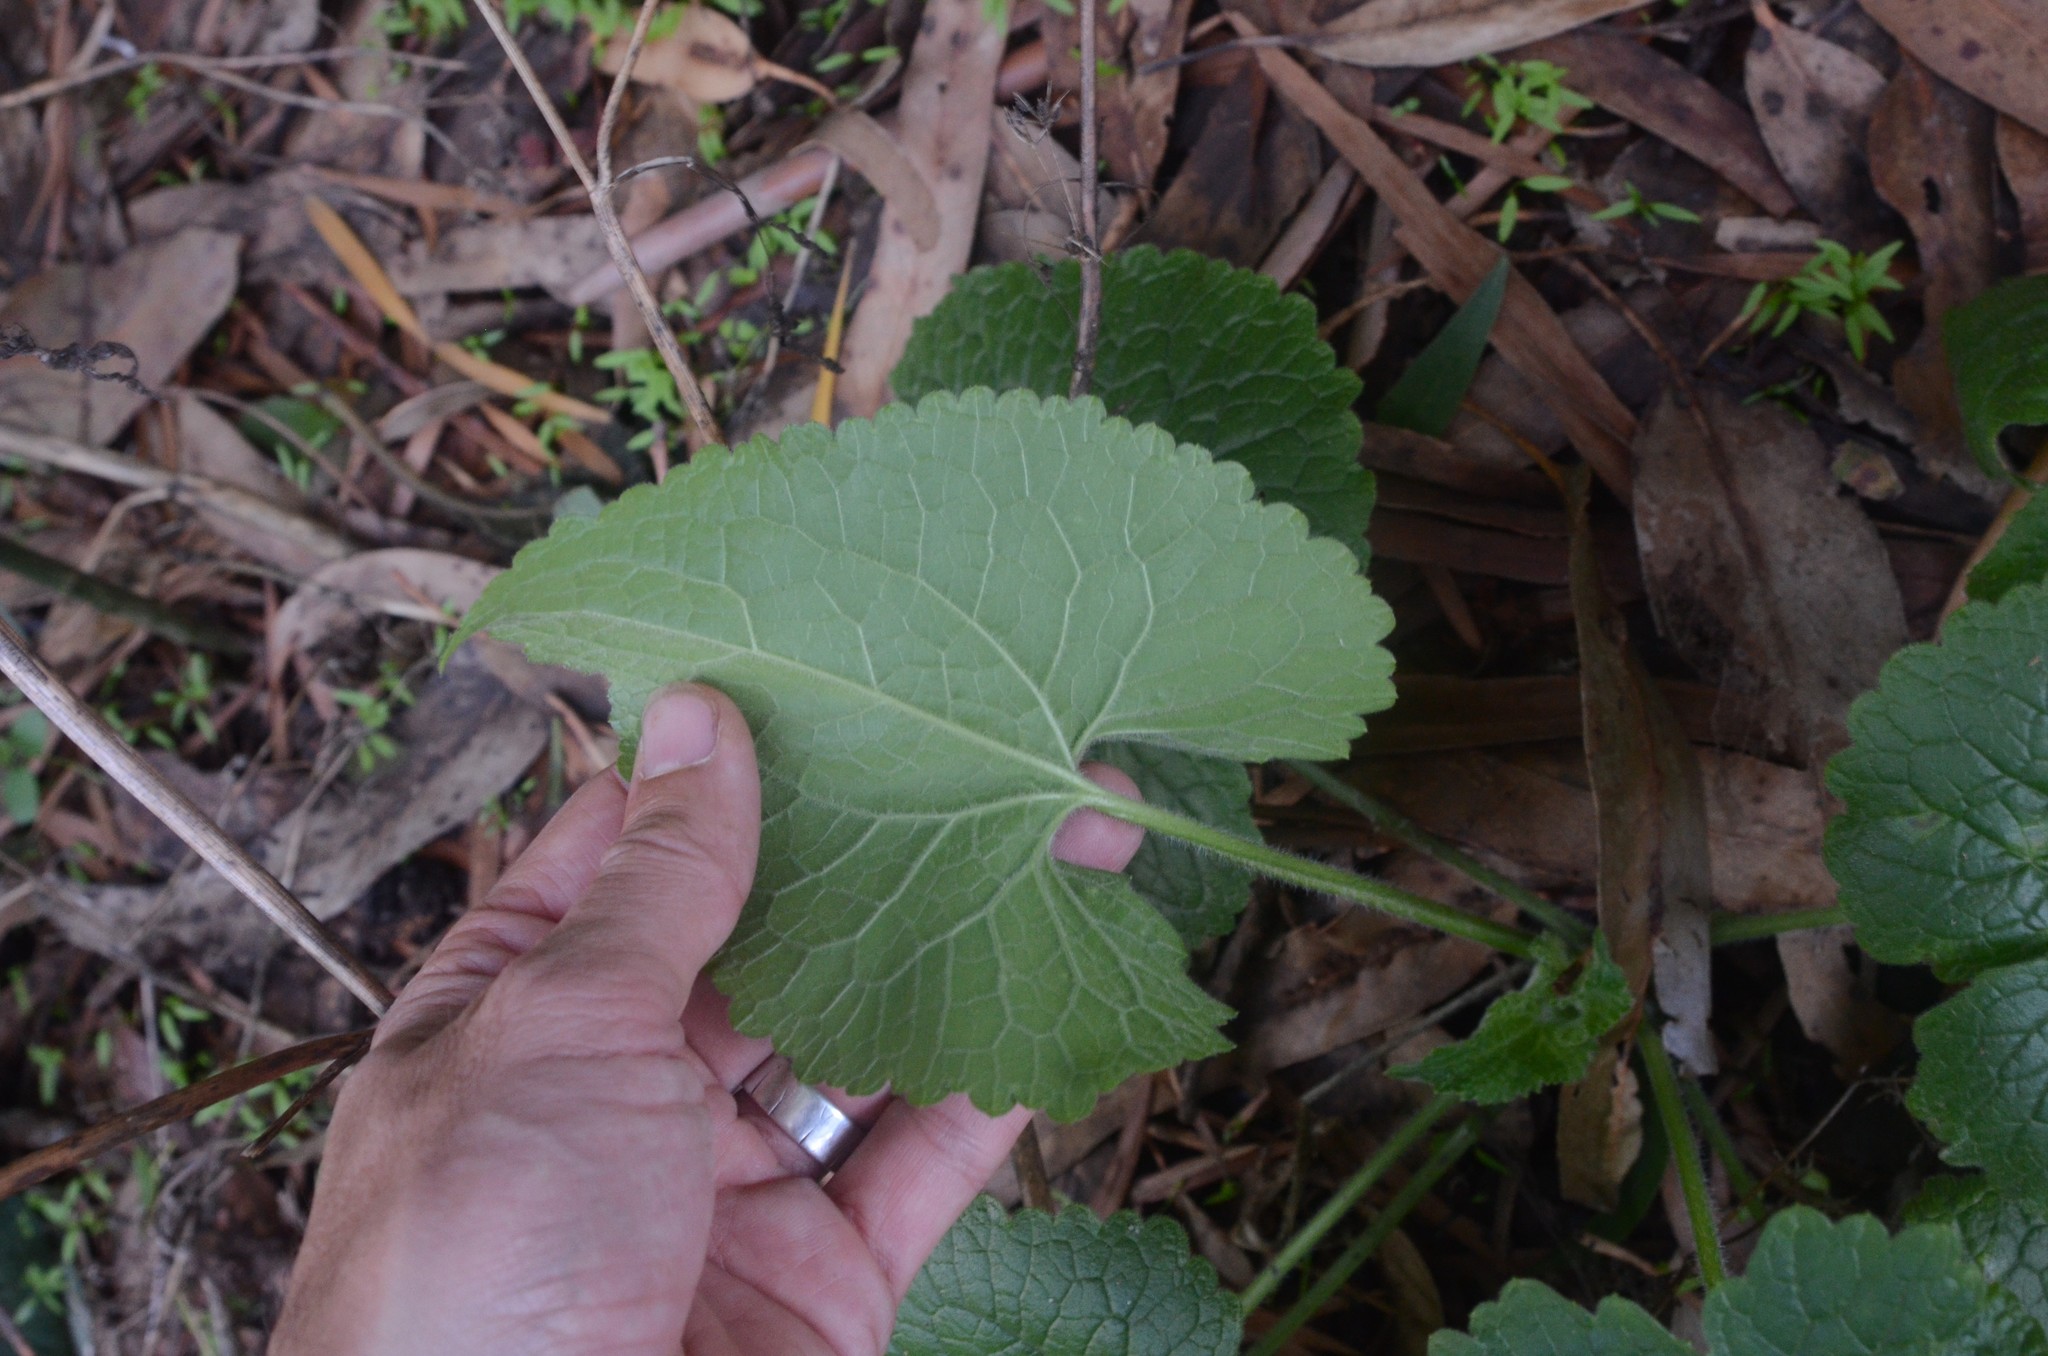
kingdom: Plantae
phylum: Tracheophyta
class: Magnoliopsida
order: Brassicales
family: Brassicaceae
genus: Lunaria
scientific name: Lunaria annua
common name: Honesty
